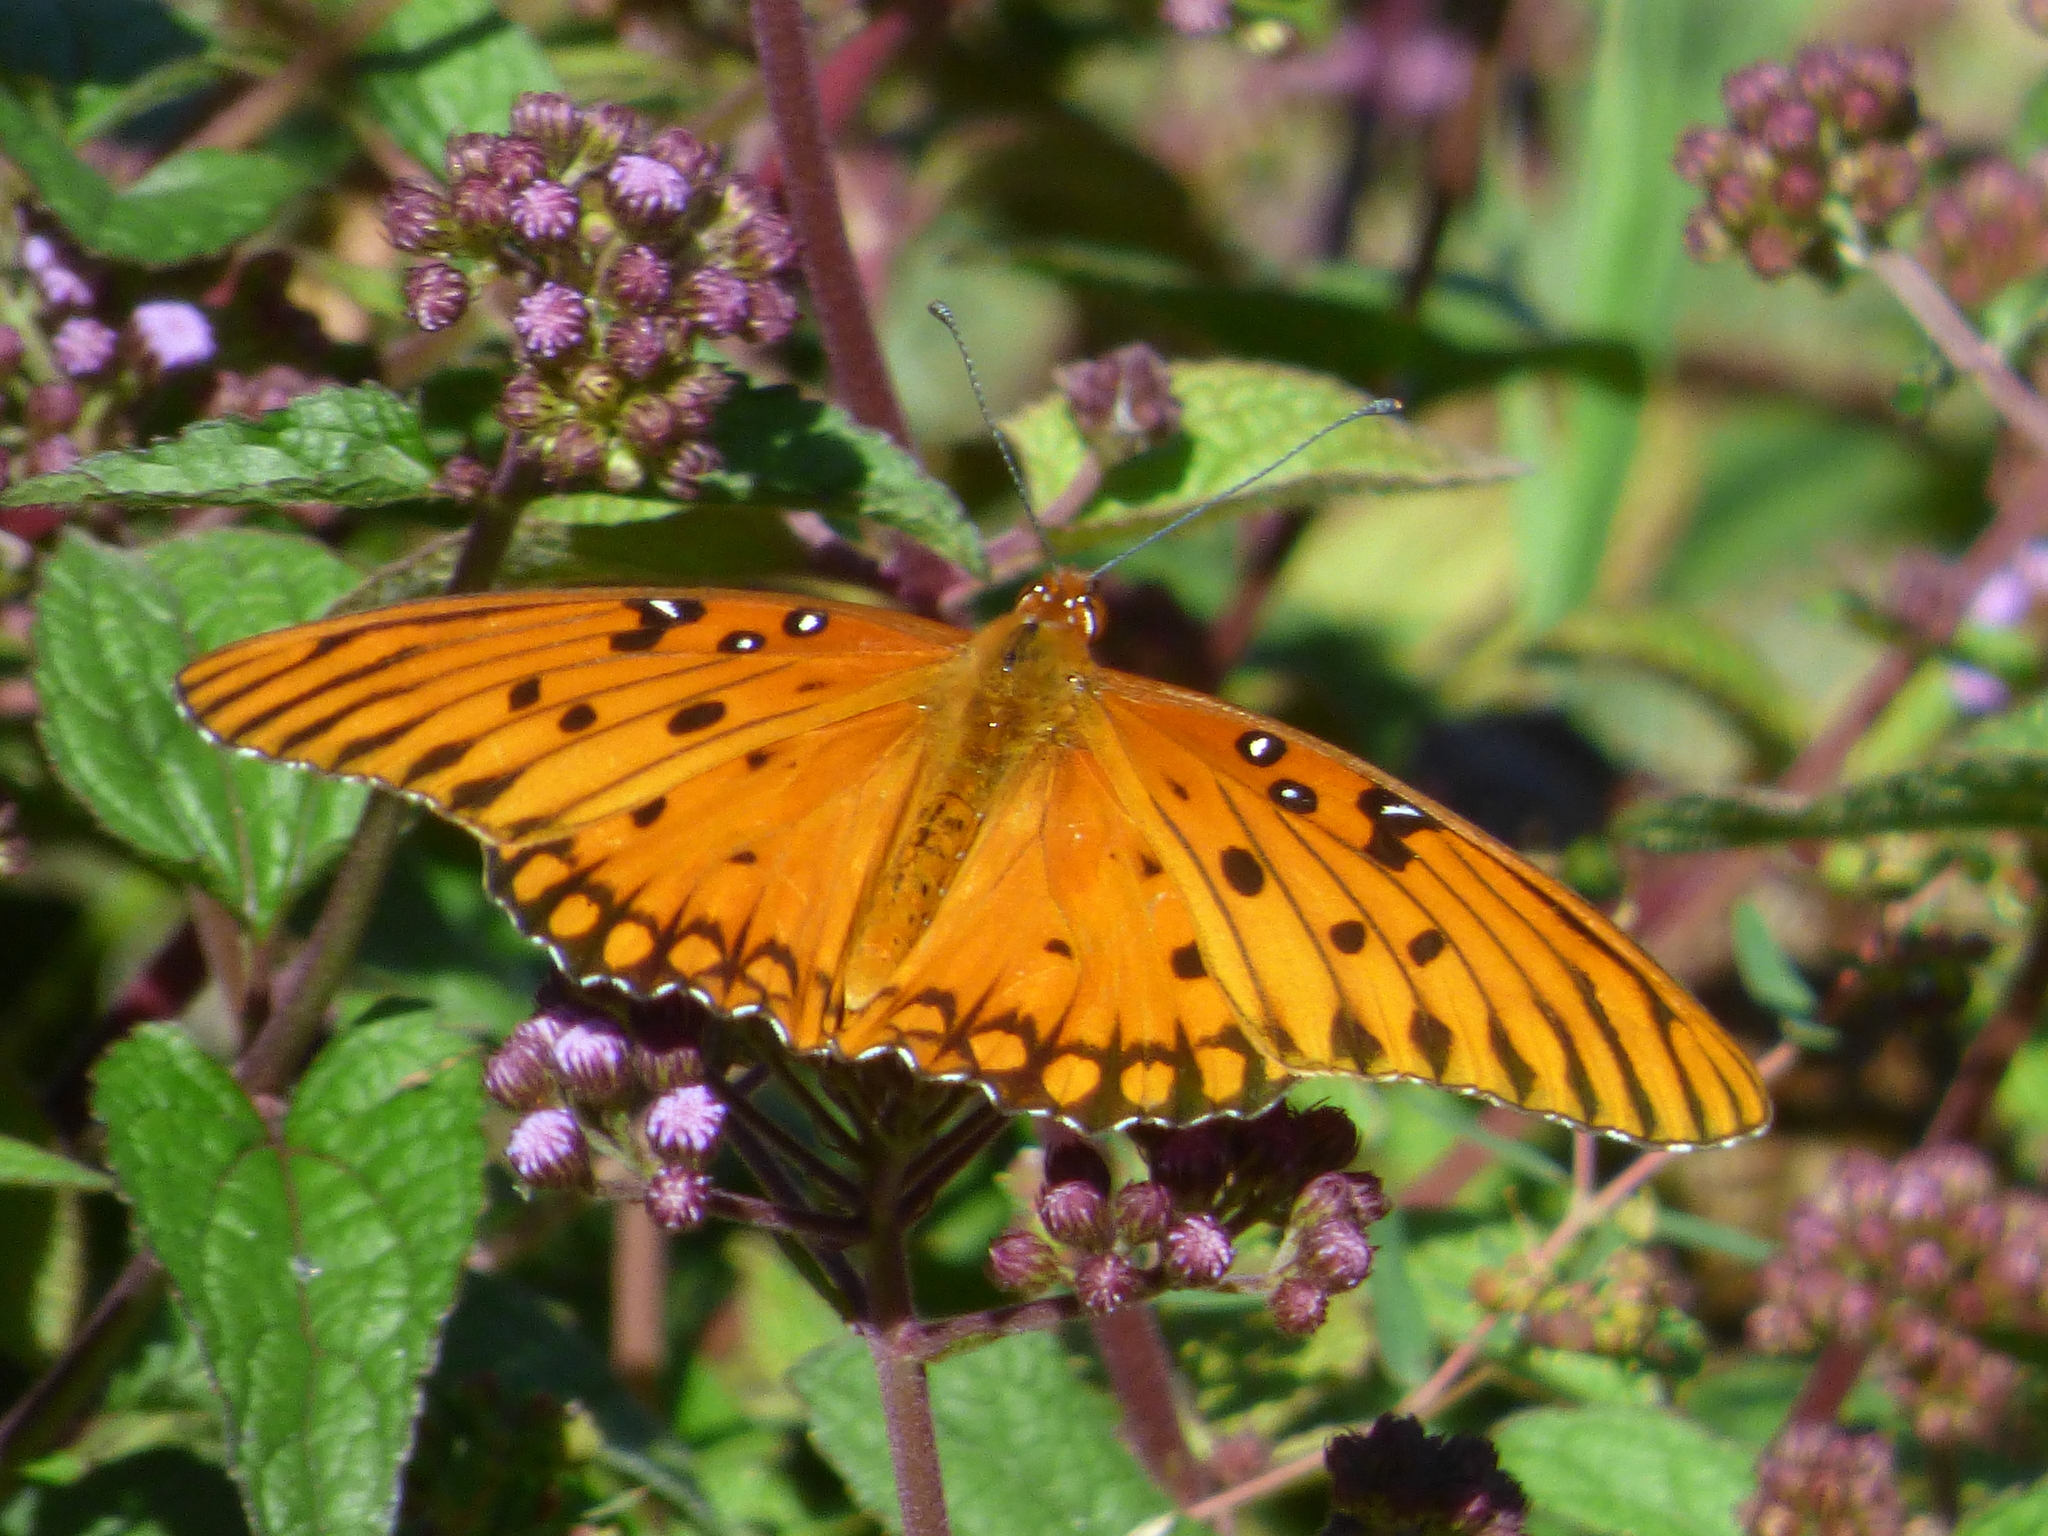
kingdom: Animalia
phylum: Arthropoda
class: Insecta
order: Lepidoptera
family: Nymphalidae
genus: Dione
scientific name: Dione vanillae
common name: Gulf fritillary
